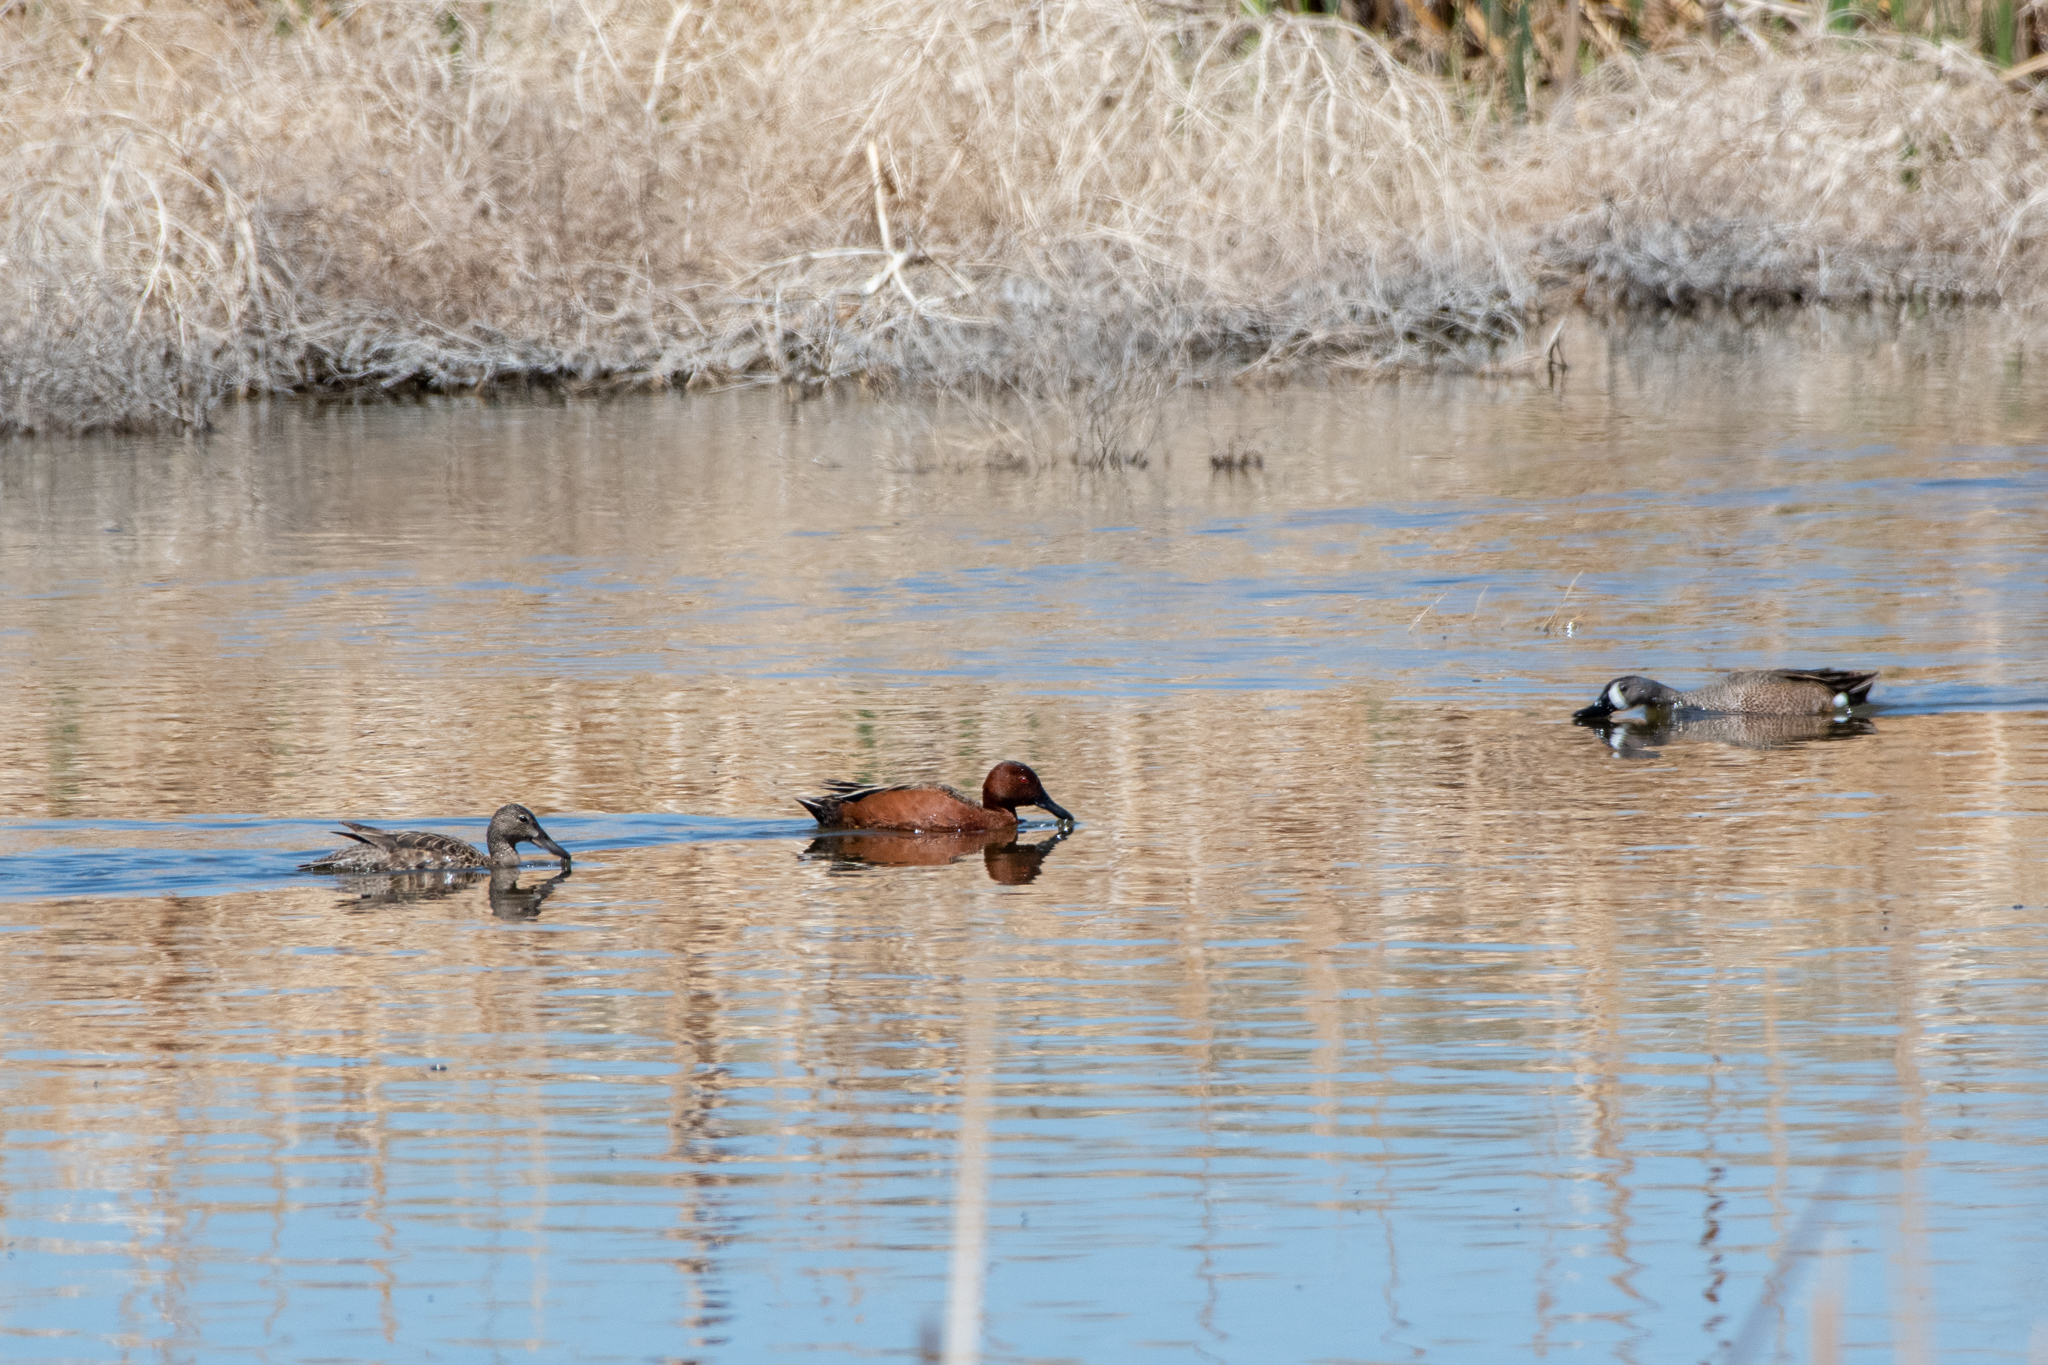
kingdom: Animalia
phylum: Chordata
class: Aves
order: Anseriformes
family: Anatidae
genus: Spatula
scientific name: Spatula cyanoptera
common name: Cinnamon teal
